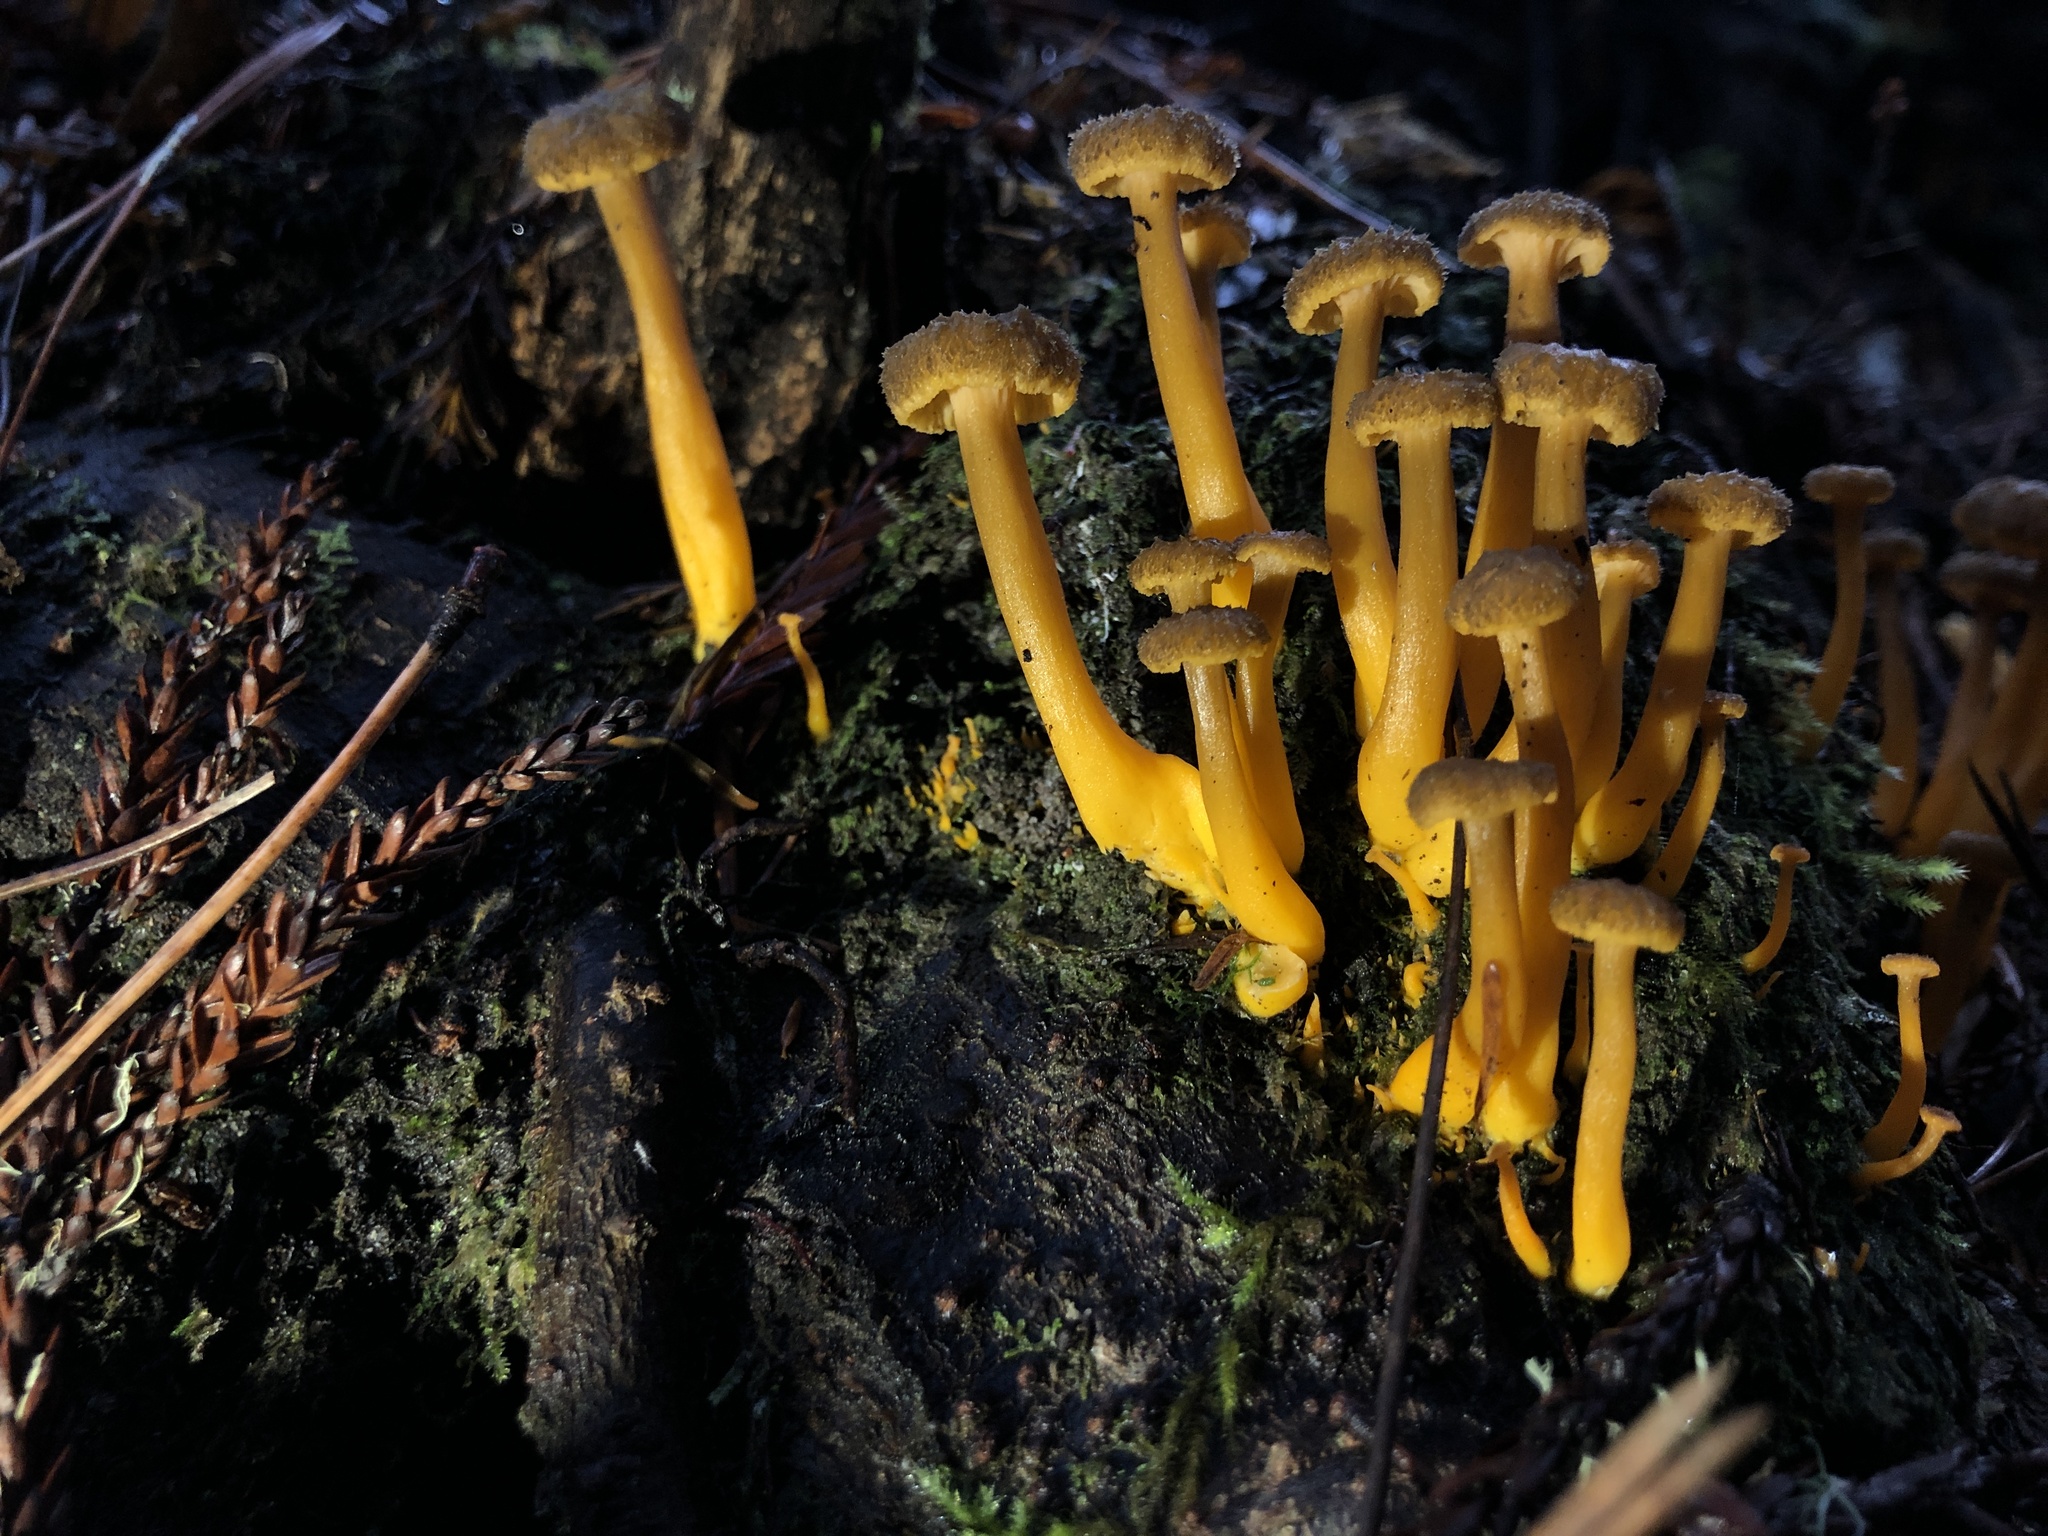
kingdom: Fungi
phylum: Basidiomycota
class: Agaricomycetes
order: Cantharellales
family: Hydnaceae
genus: Craterellus
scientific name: Craterellus tubaeformis
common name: Yellowfoot
